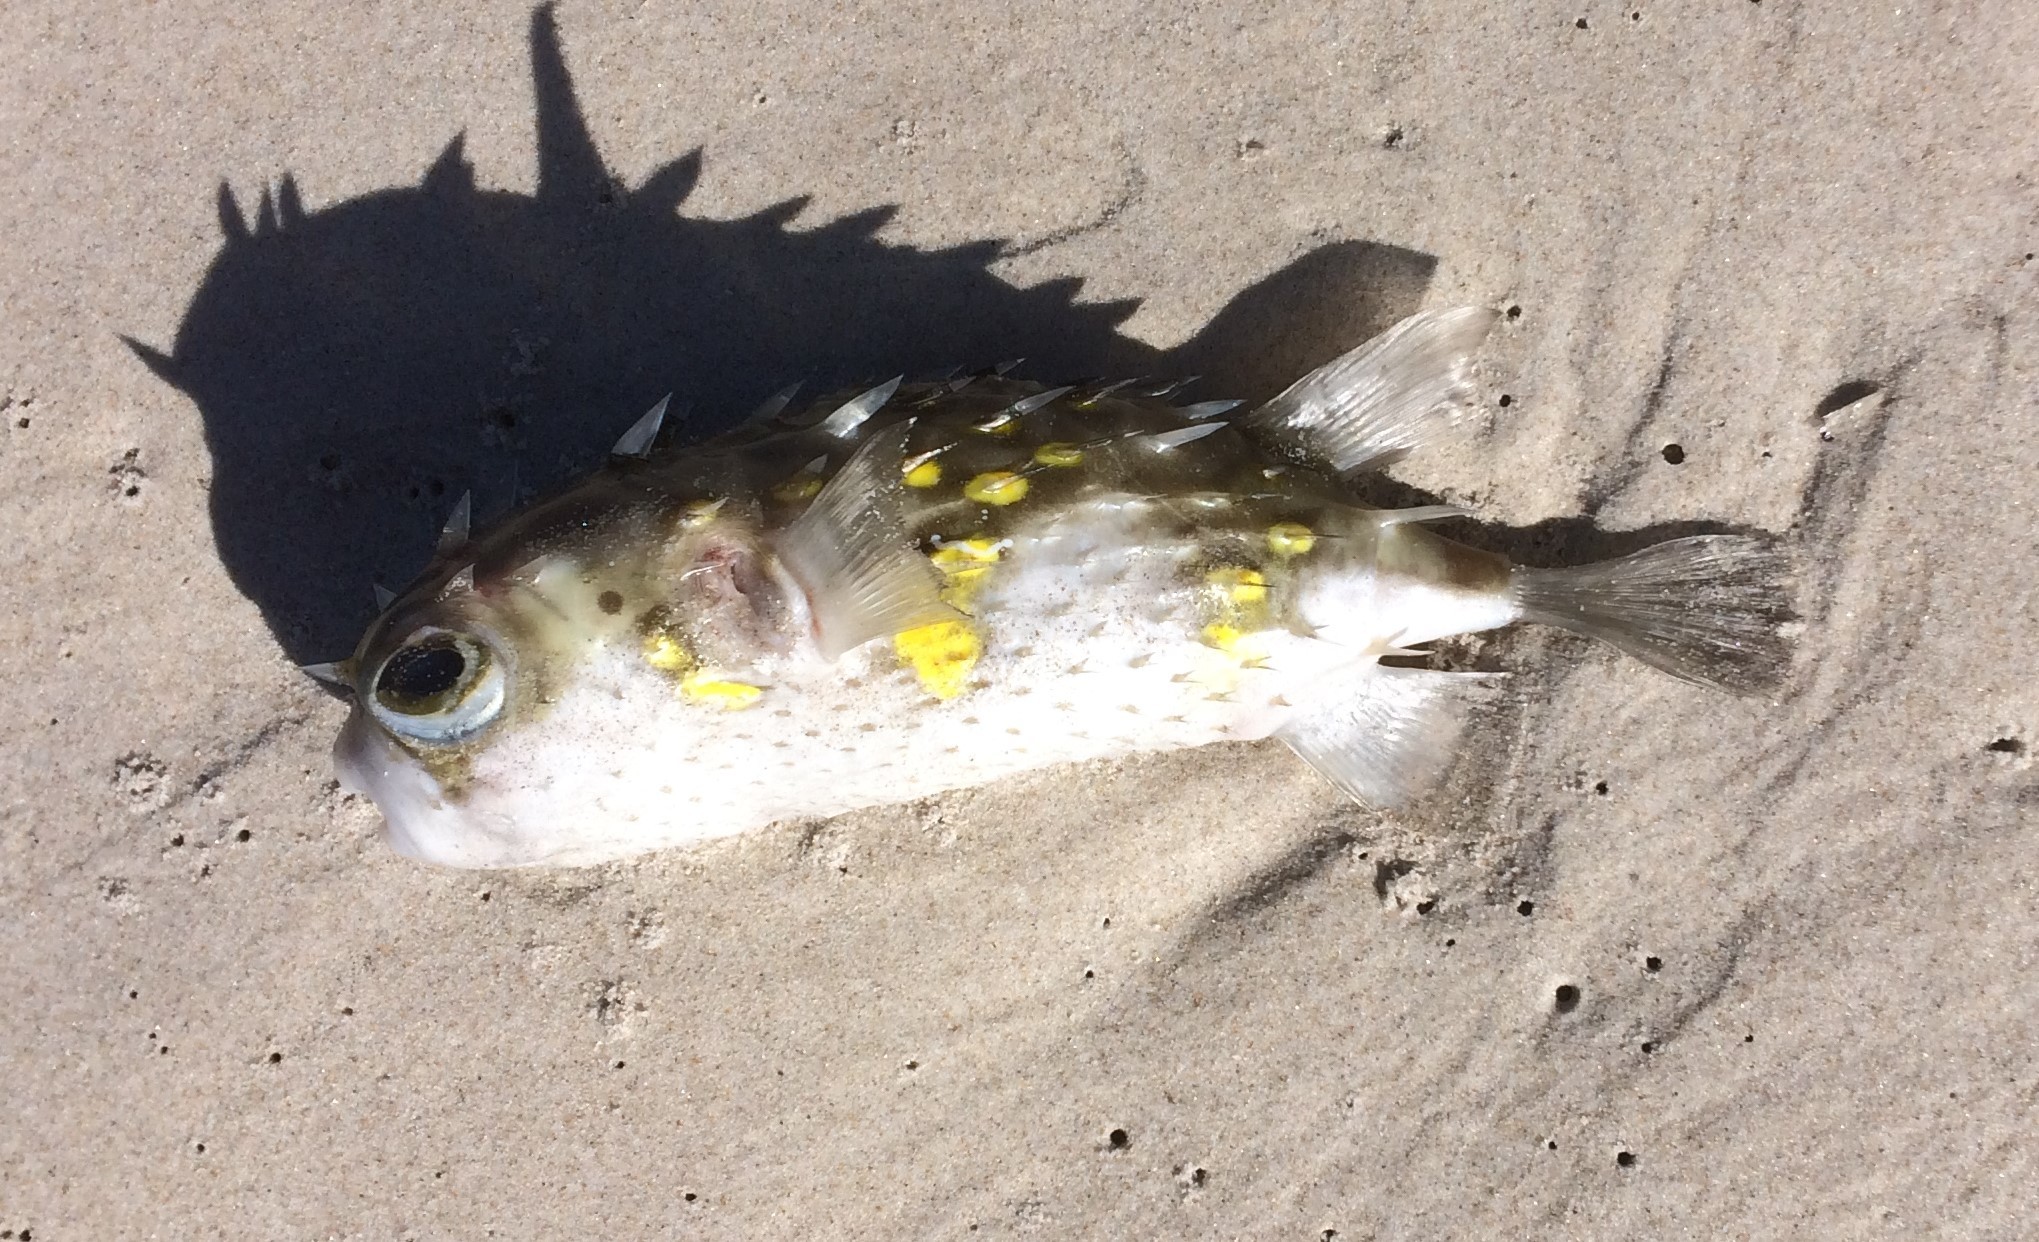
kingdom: Animalia
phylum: Chordata
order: Tetraodontiformes
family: Diodontidae
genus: Allomycterus
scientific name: Allomycterus pilatus
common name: No common name
